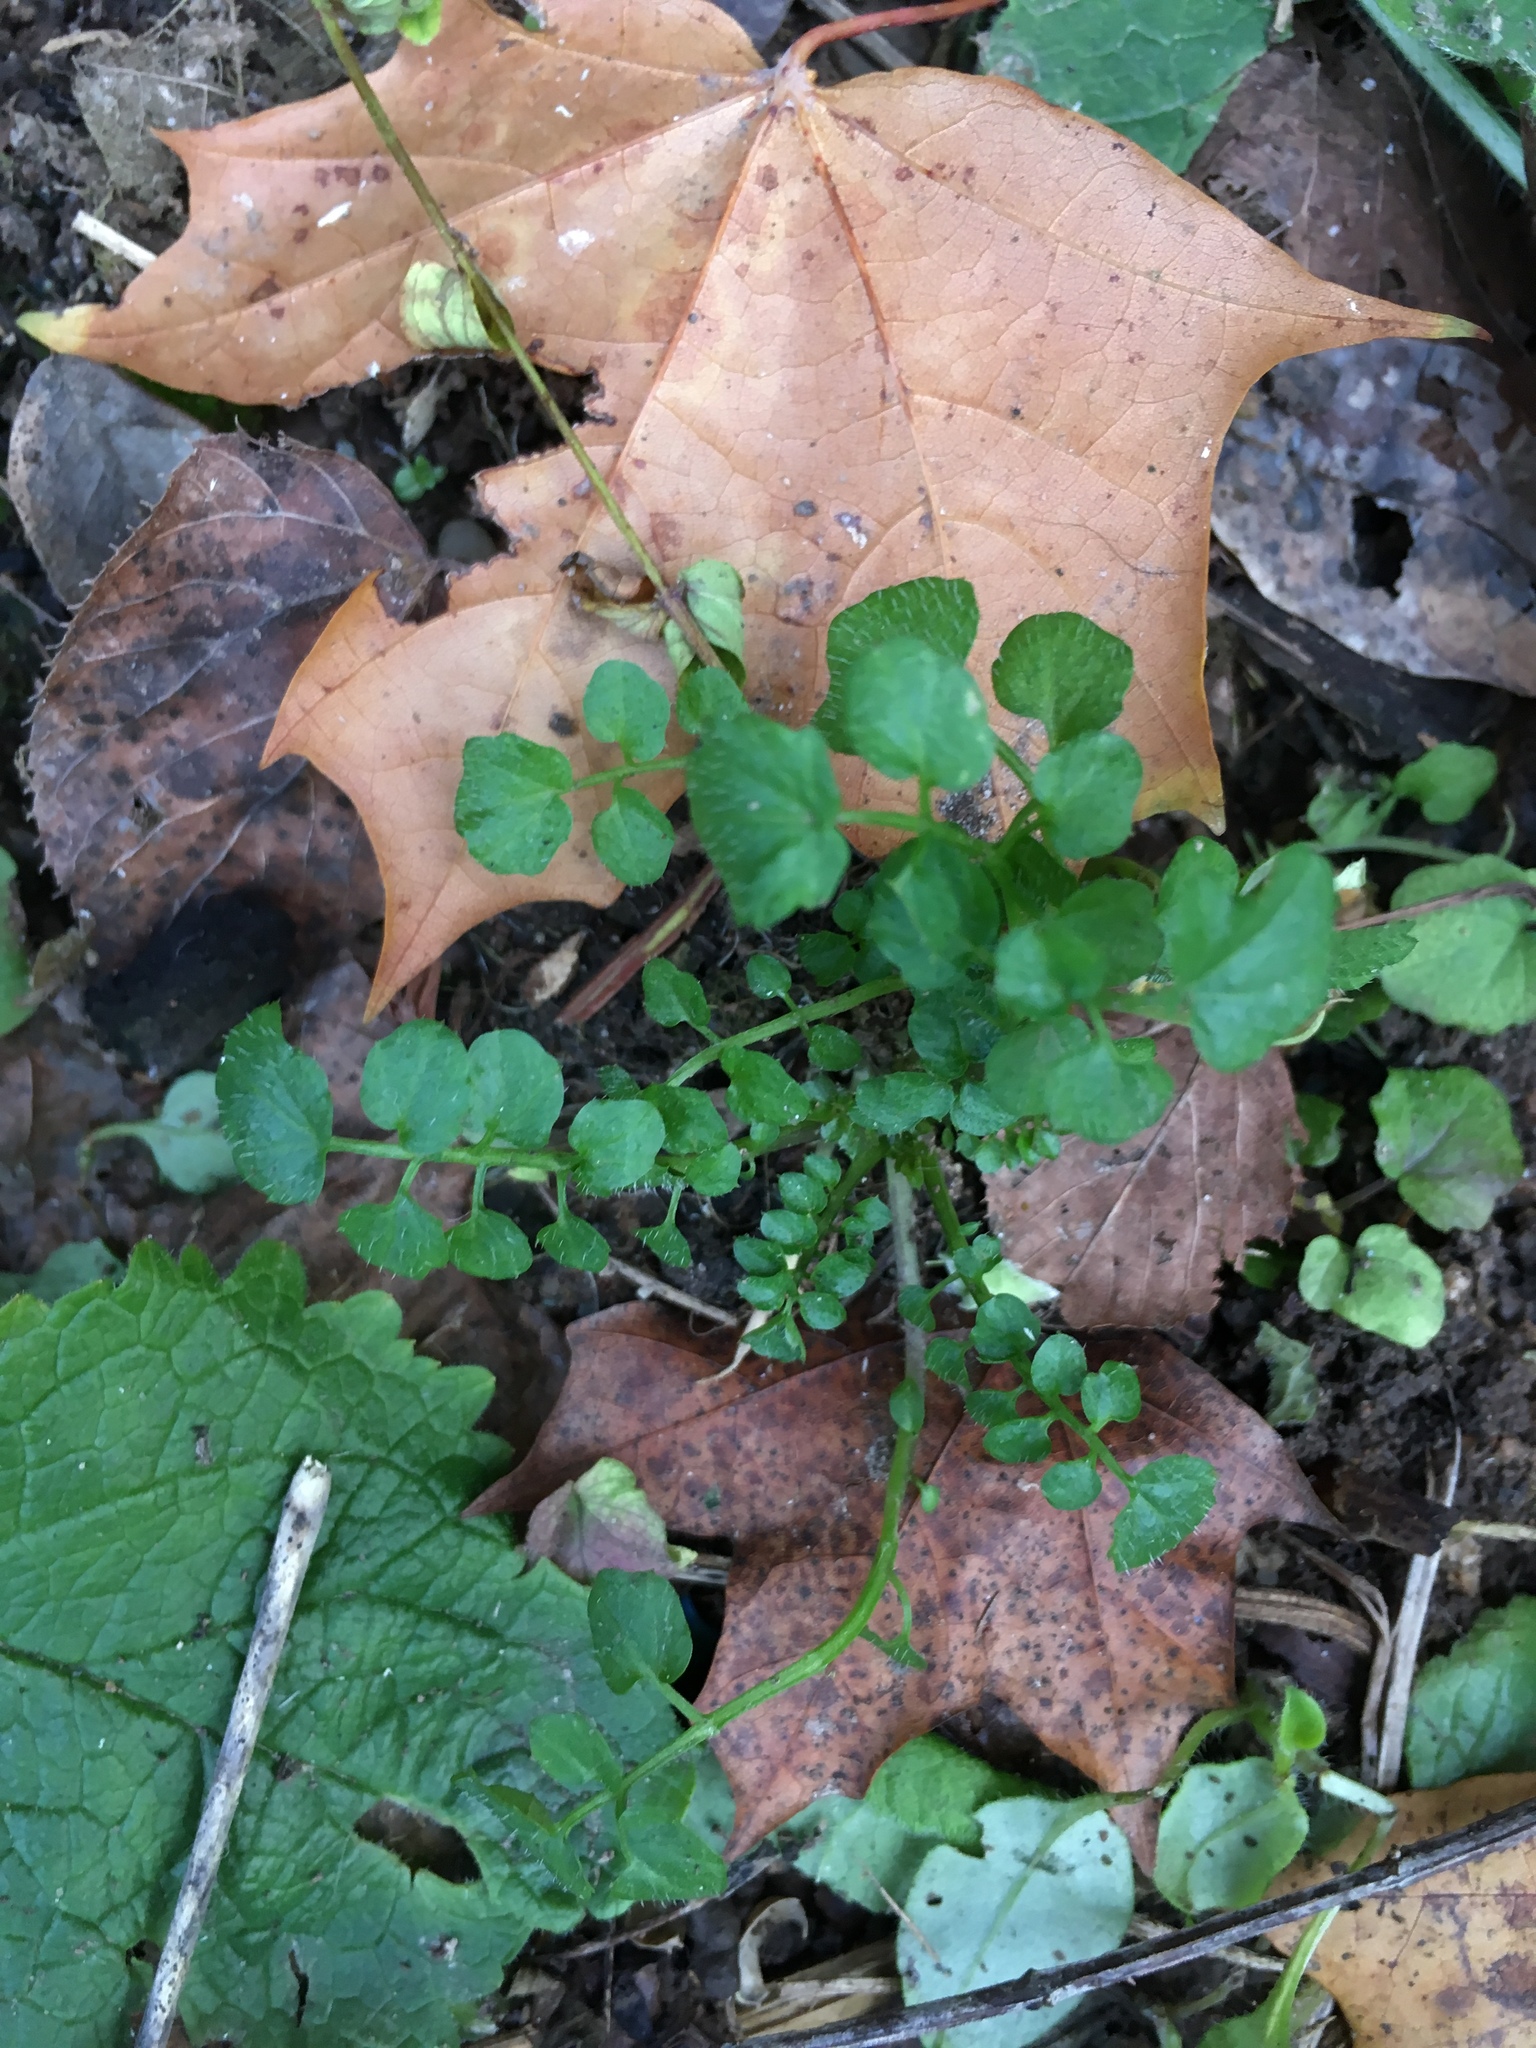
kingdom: Plantae
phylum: Tracheophyta
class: Magnoliopsida
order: Brassicales
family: Brassicaceae
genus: Cardamine
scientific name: Cardamine hirsuta
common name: Hairy bittercress
